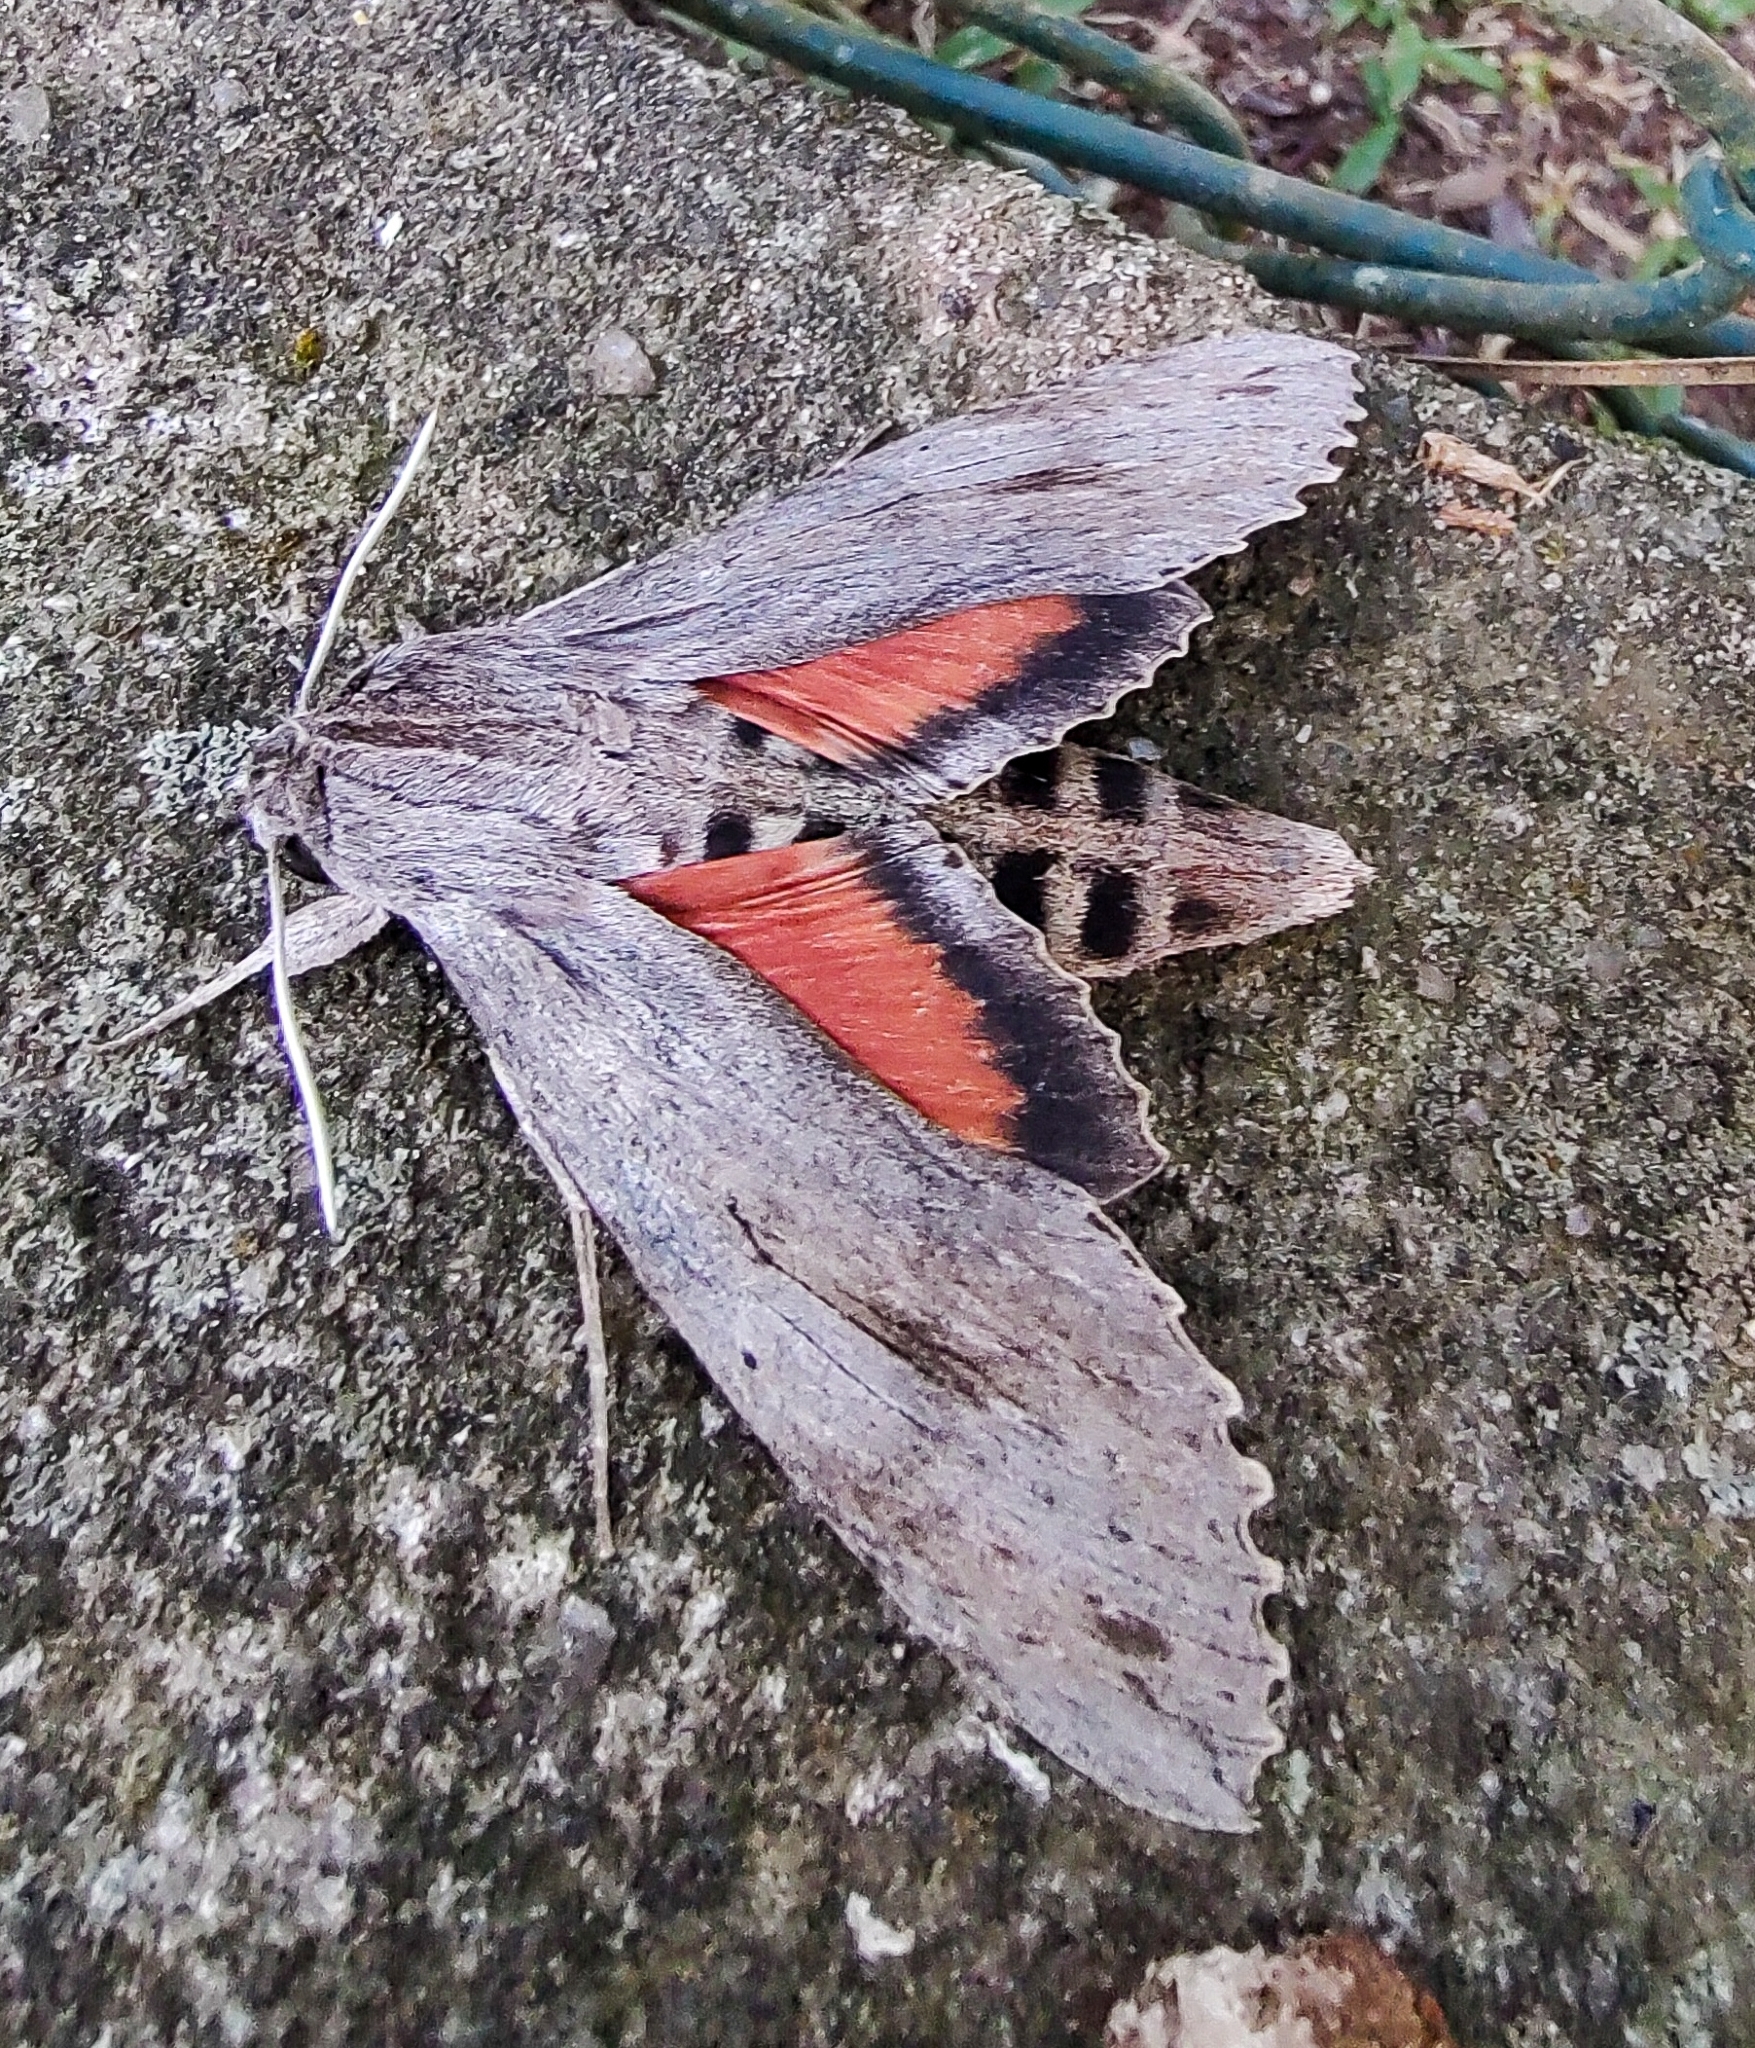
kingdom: Animalia
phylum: Arthropoda
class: Insecta
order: Lepidoptera
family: Sphingidae
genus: Erinnyis
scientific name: Erinnyis ello
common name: Ello sphinx
